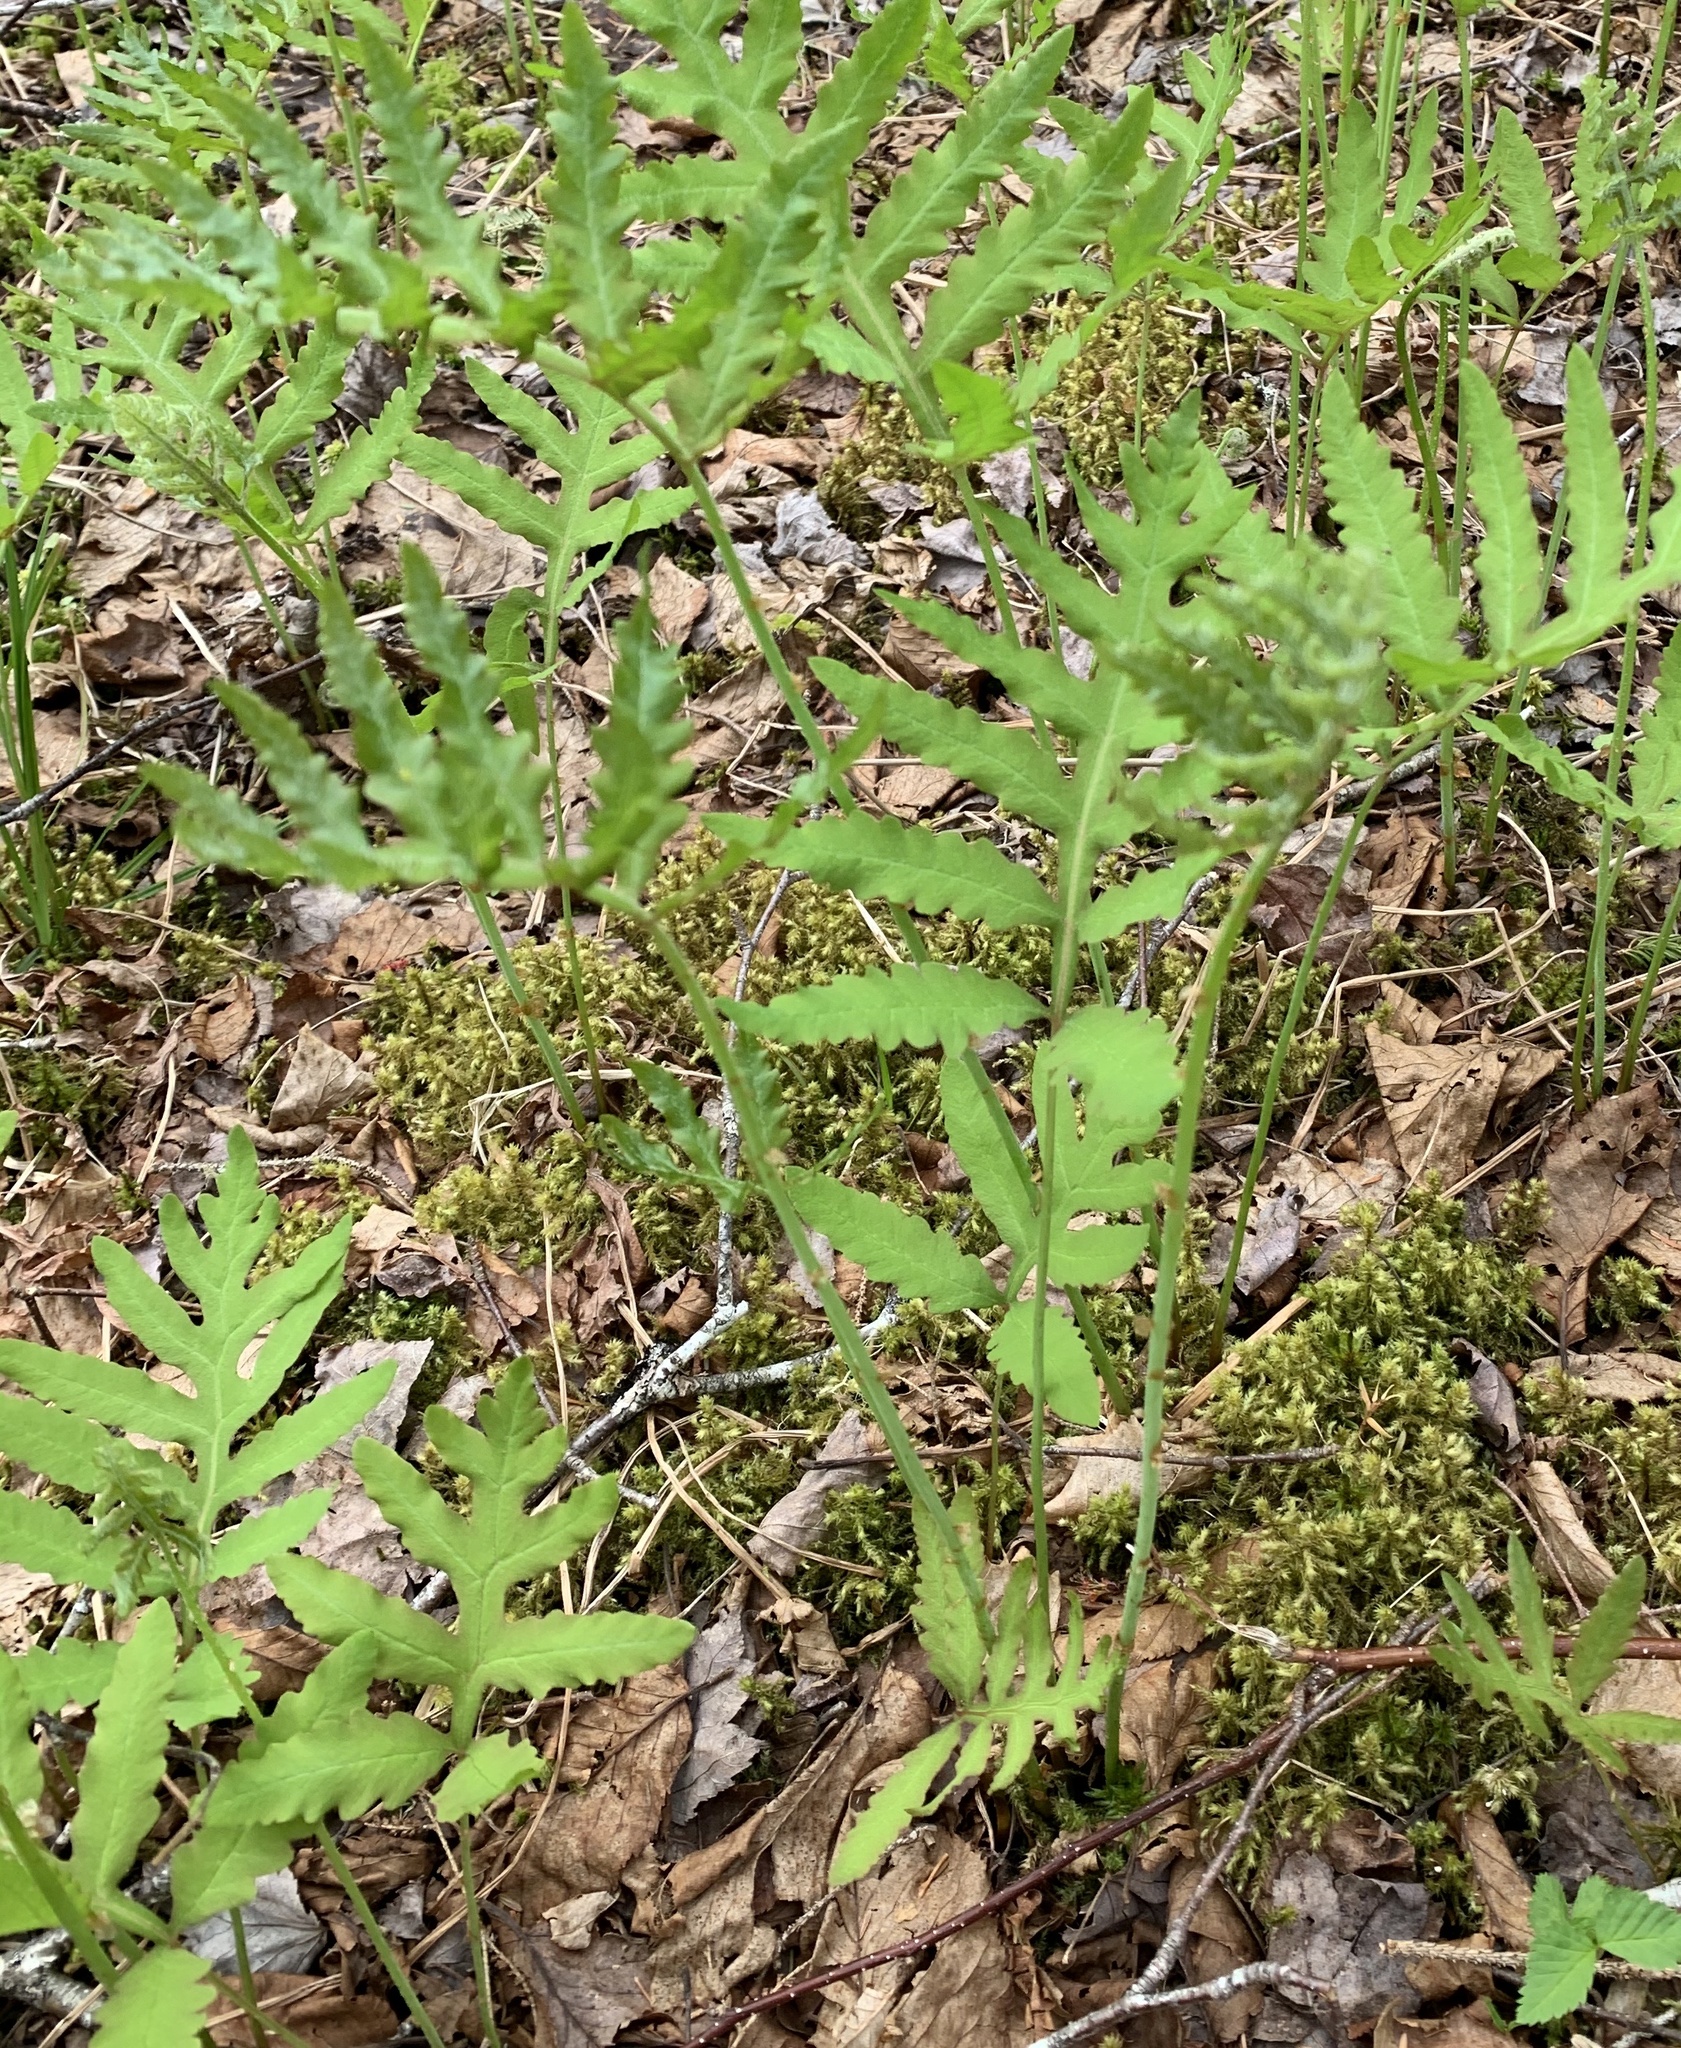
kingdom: Plantae
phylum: Tracheophyta
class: Polypodiopsida
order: Polypodiales
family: Onocleaceae
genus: Onoclea
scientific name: Onoclea sensibilis
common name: Sensitive fern
